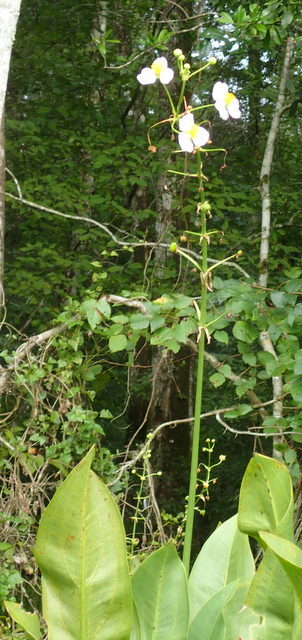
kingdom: Plantae
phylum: Tracheophyta
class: Liliopsida
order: Alismatales
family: Alismataceae
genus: Sagittaria
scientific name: Sagittaria lancifolia
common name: Lance-leaf arrowhead
